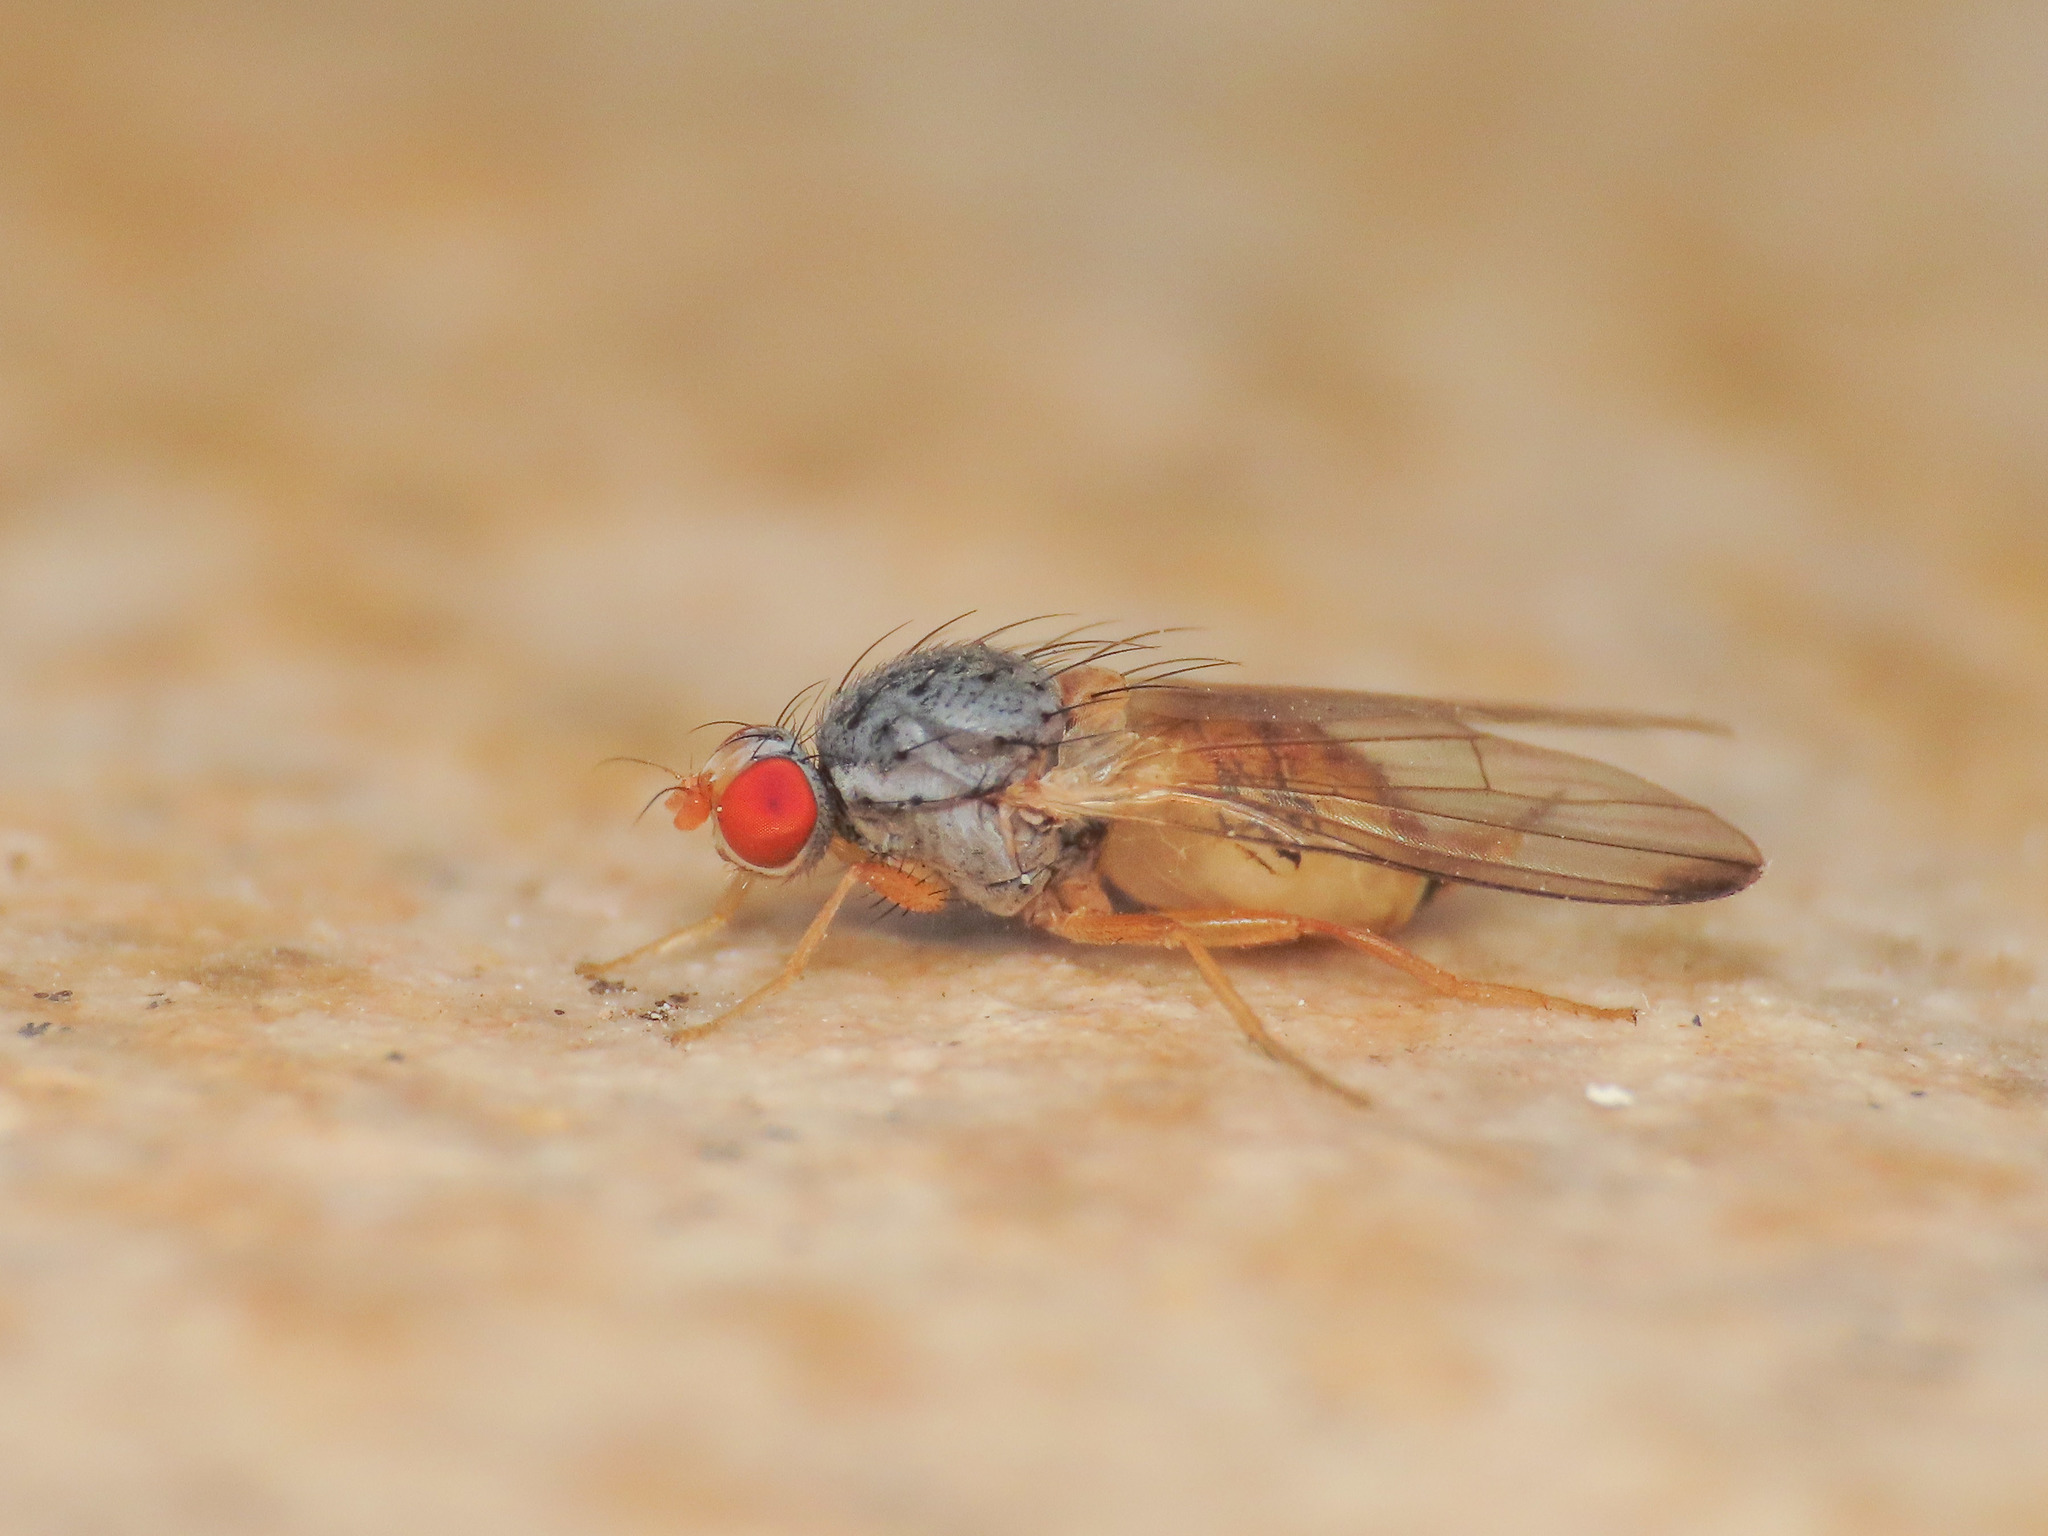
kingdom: Animalia
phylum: Arthropoda
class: Insecta
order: Diptera
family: Pallopteridae
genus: Palloptera
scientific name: Palloptera ustulata
